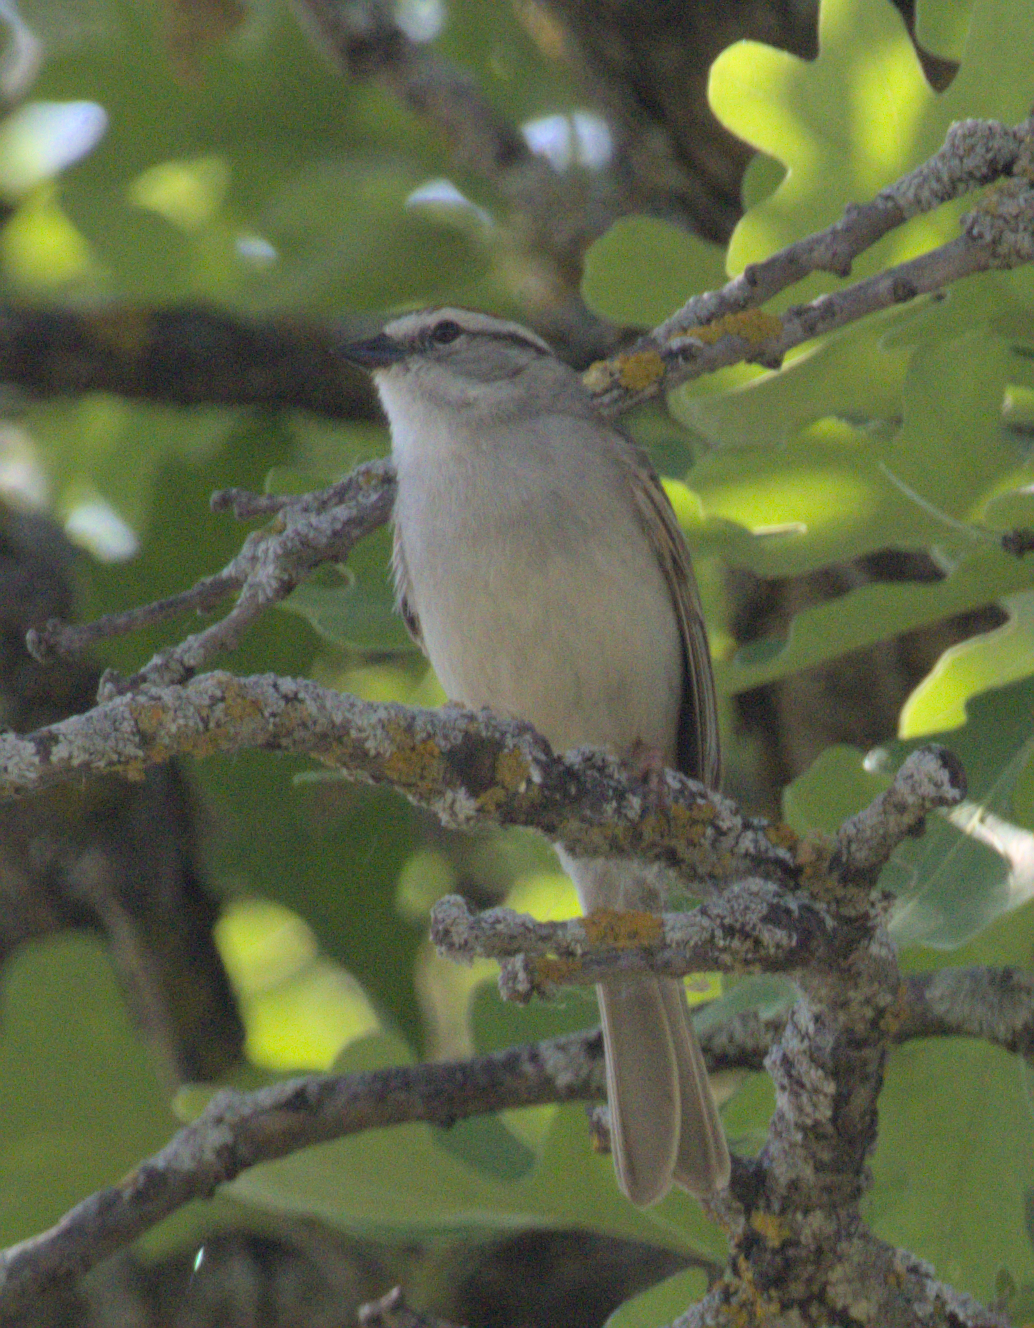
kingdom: Animalia
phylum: Chordata
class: Aves
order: Passeriformes
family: Passerellidae
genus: Spizella
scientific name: Spizella passerina
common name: Chipping sparrow
